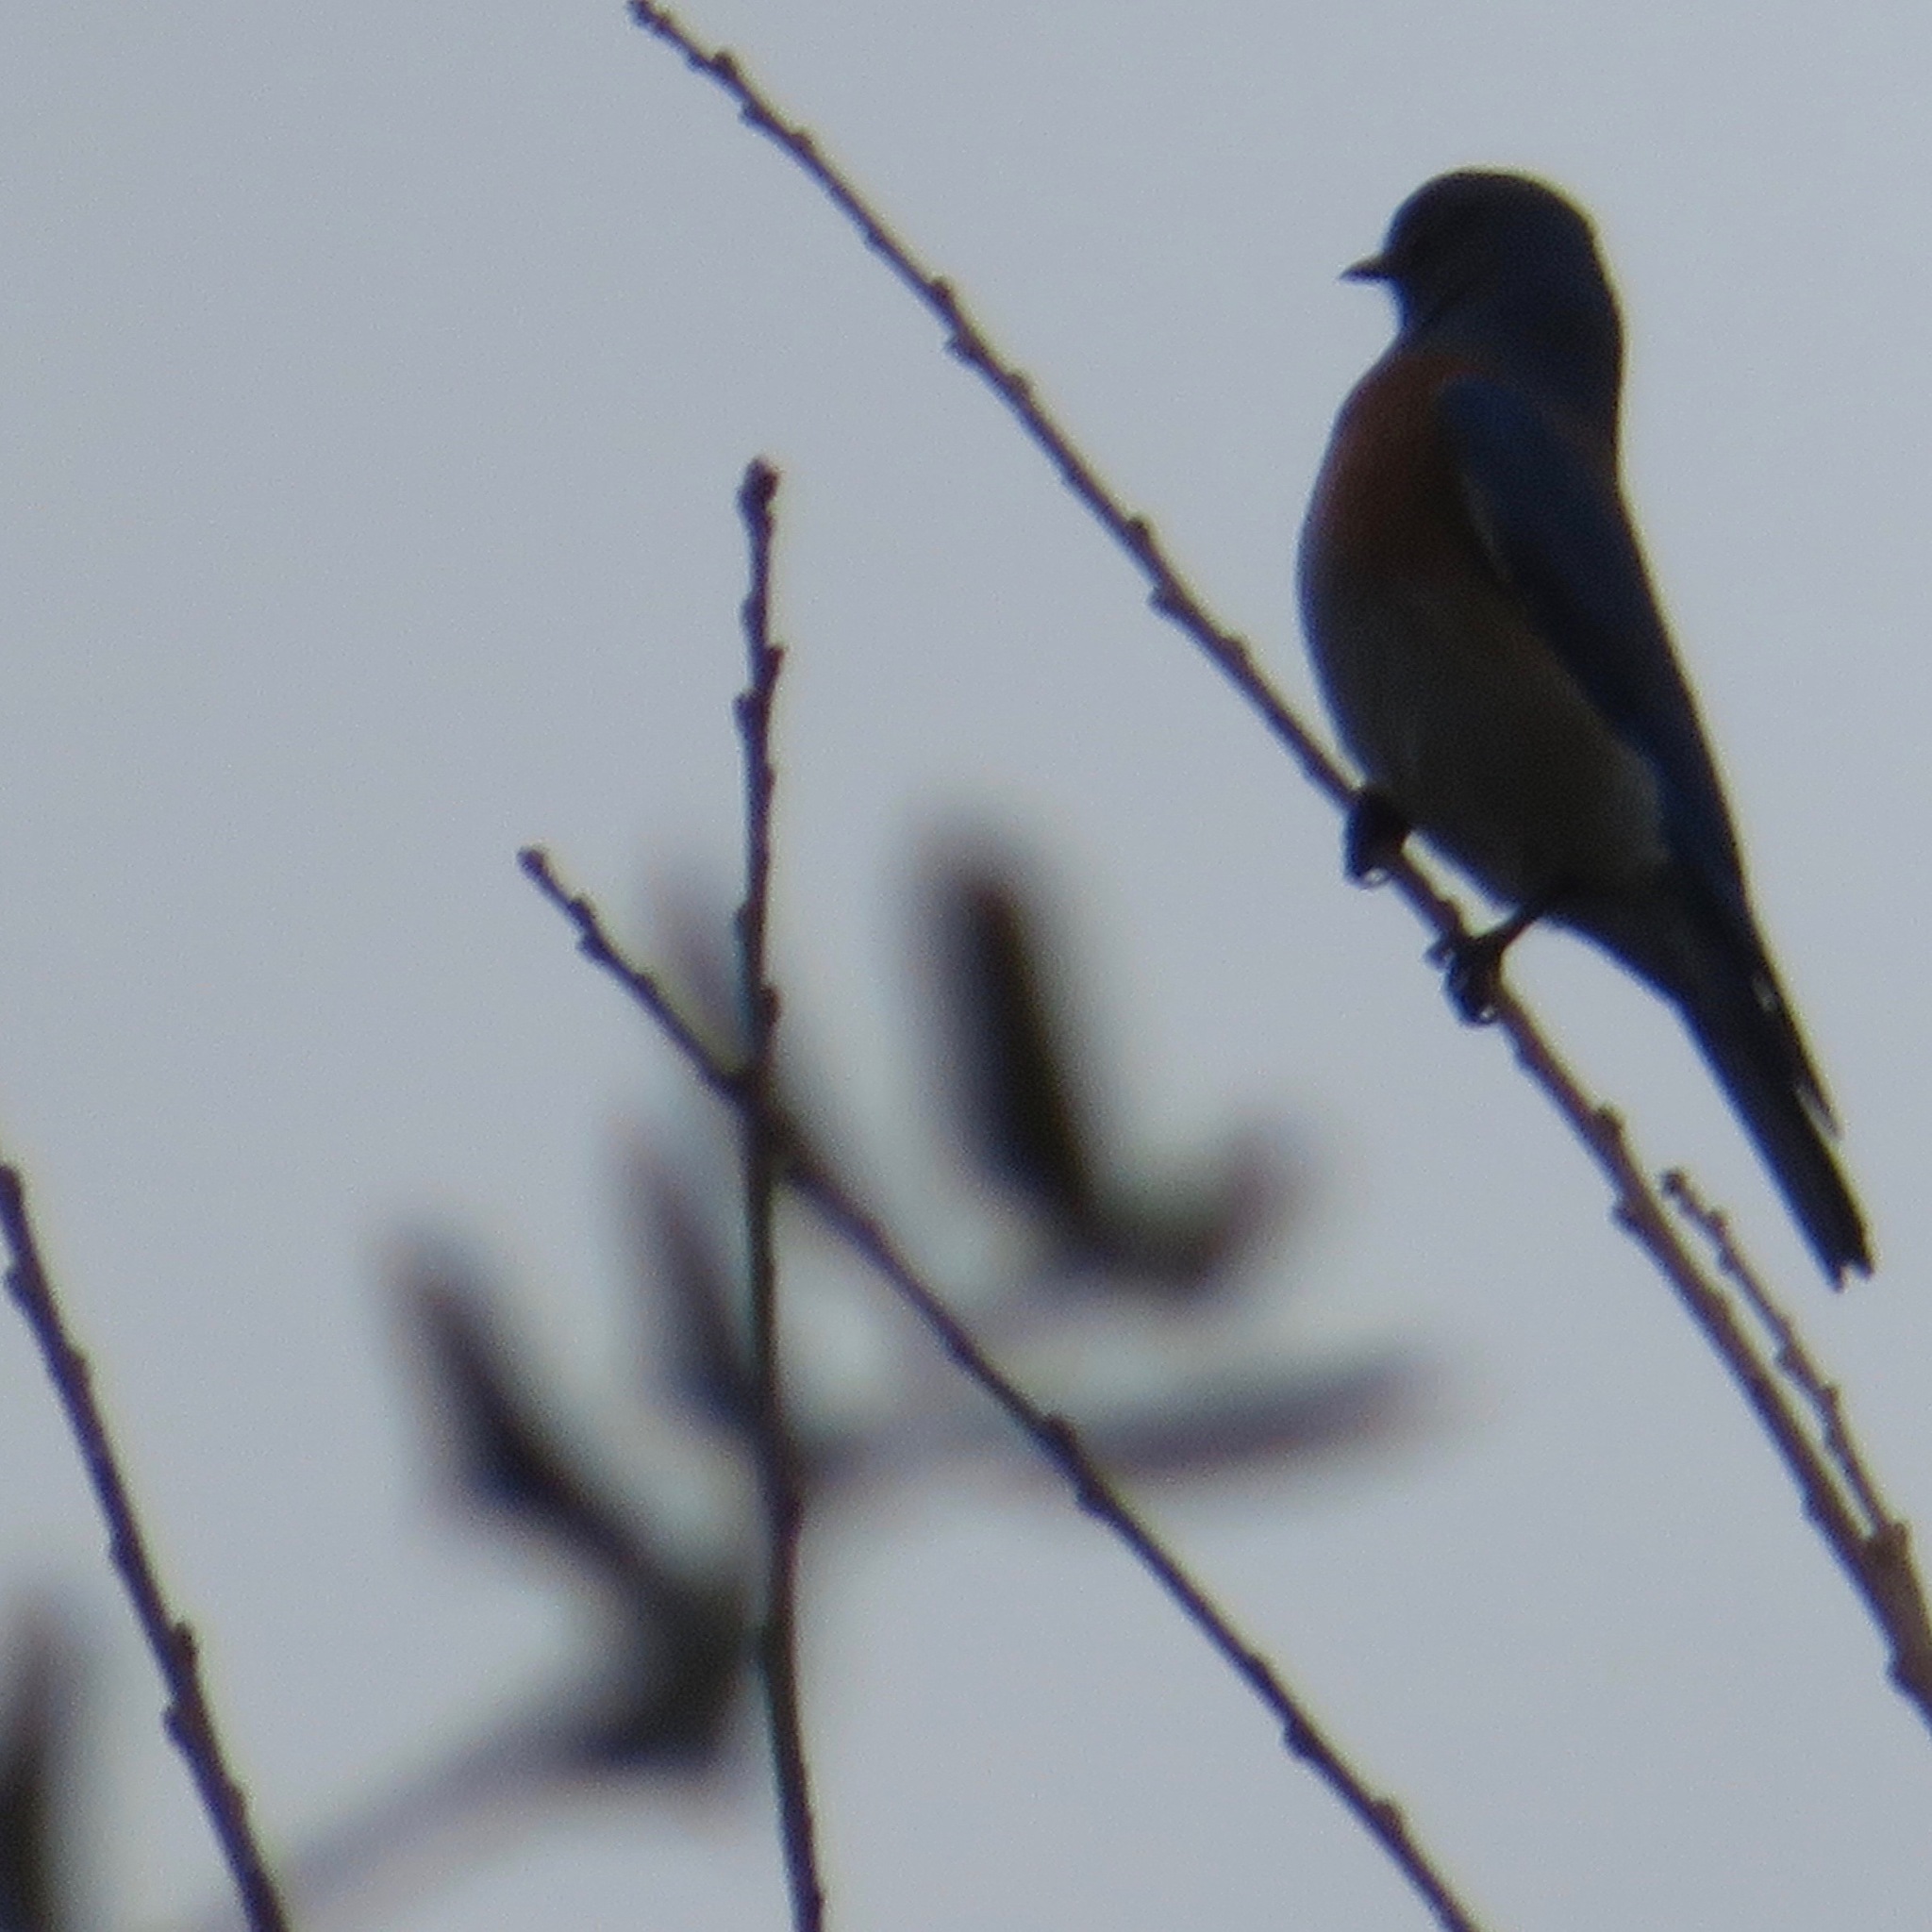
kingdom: Animalia
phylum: Chordata
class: Aves
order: Passeriformes
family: Turdidae
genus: Sialia
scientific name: Sialia mexicana
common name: Western bluebird
